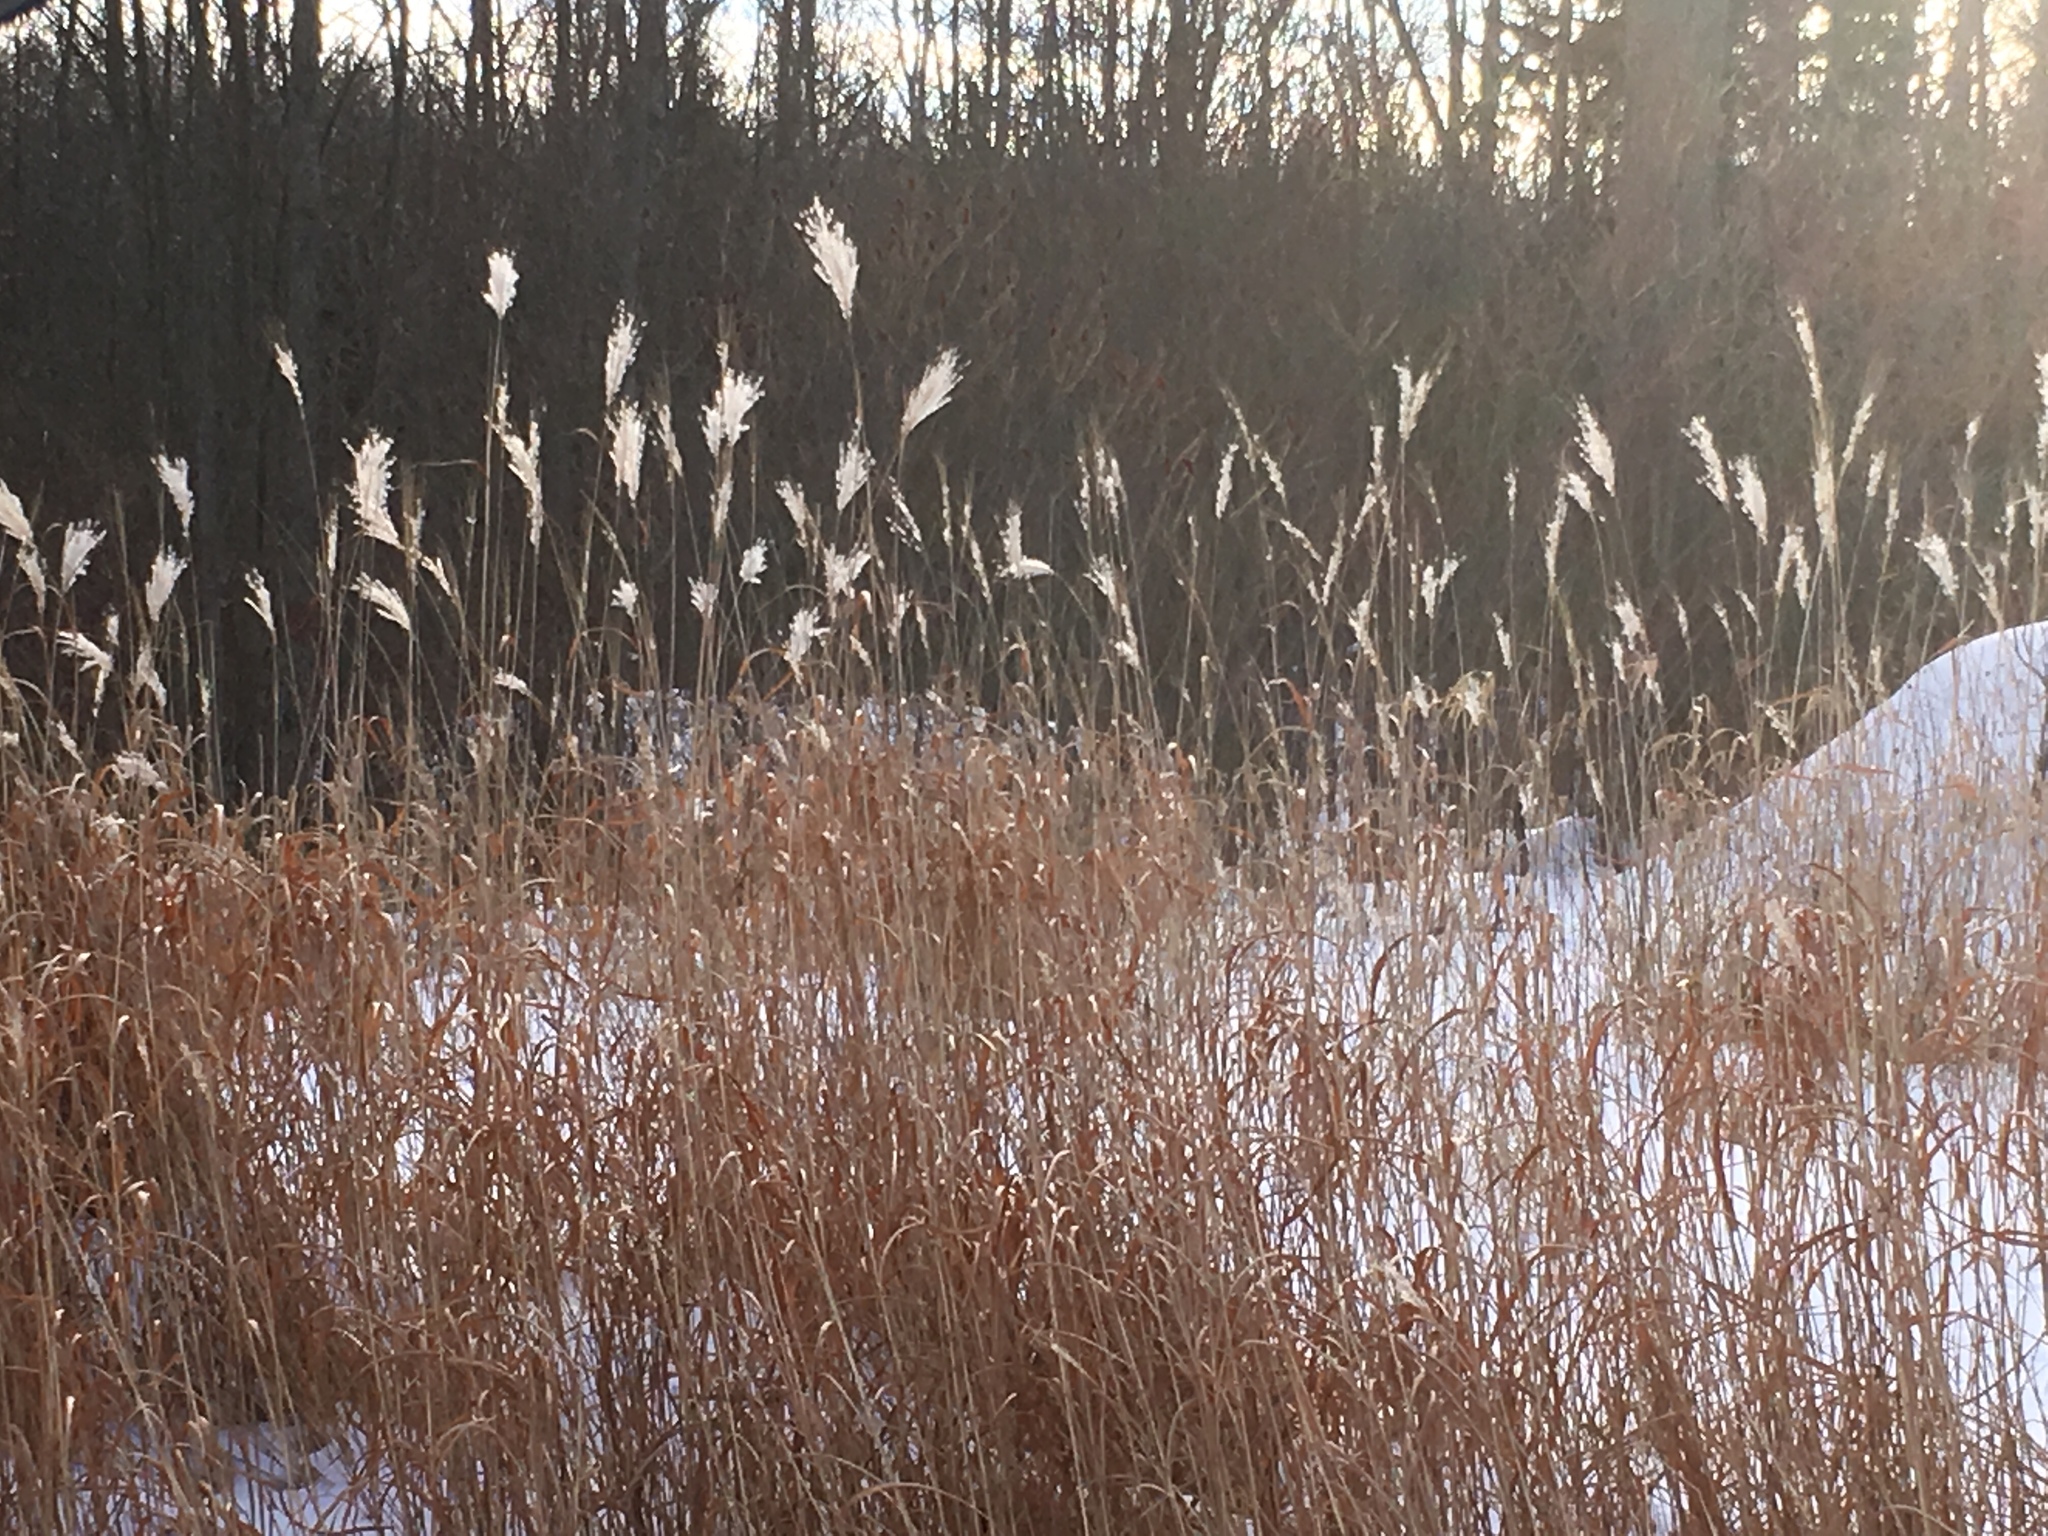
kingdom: Plantae
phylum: Tracheophyta
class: Liliopsida
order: Poales
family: Poaceae
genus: Miscanthus
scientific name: Miscanthus sacchariflorus
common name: Amur silver grass
